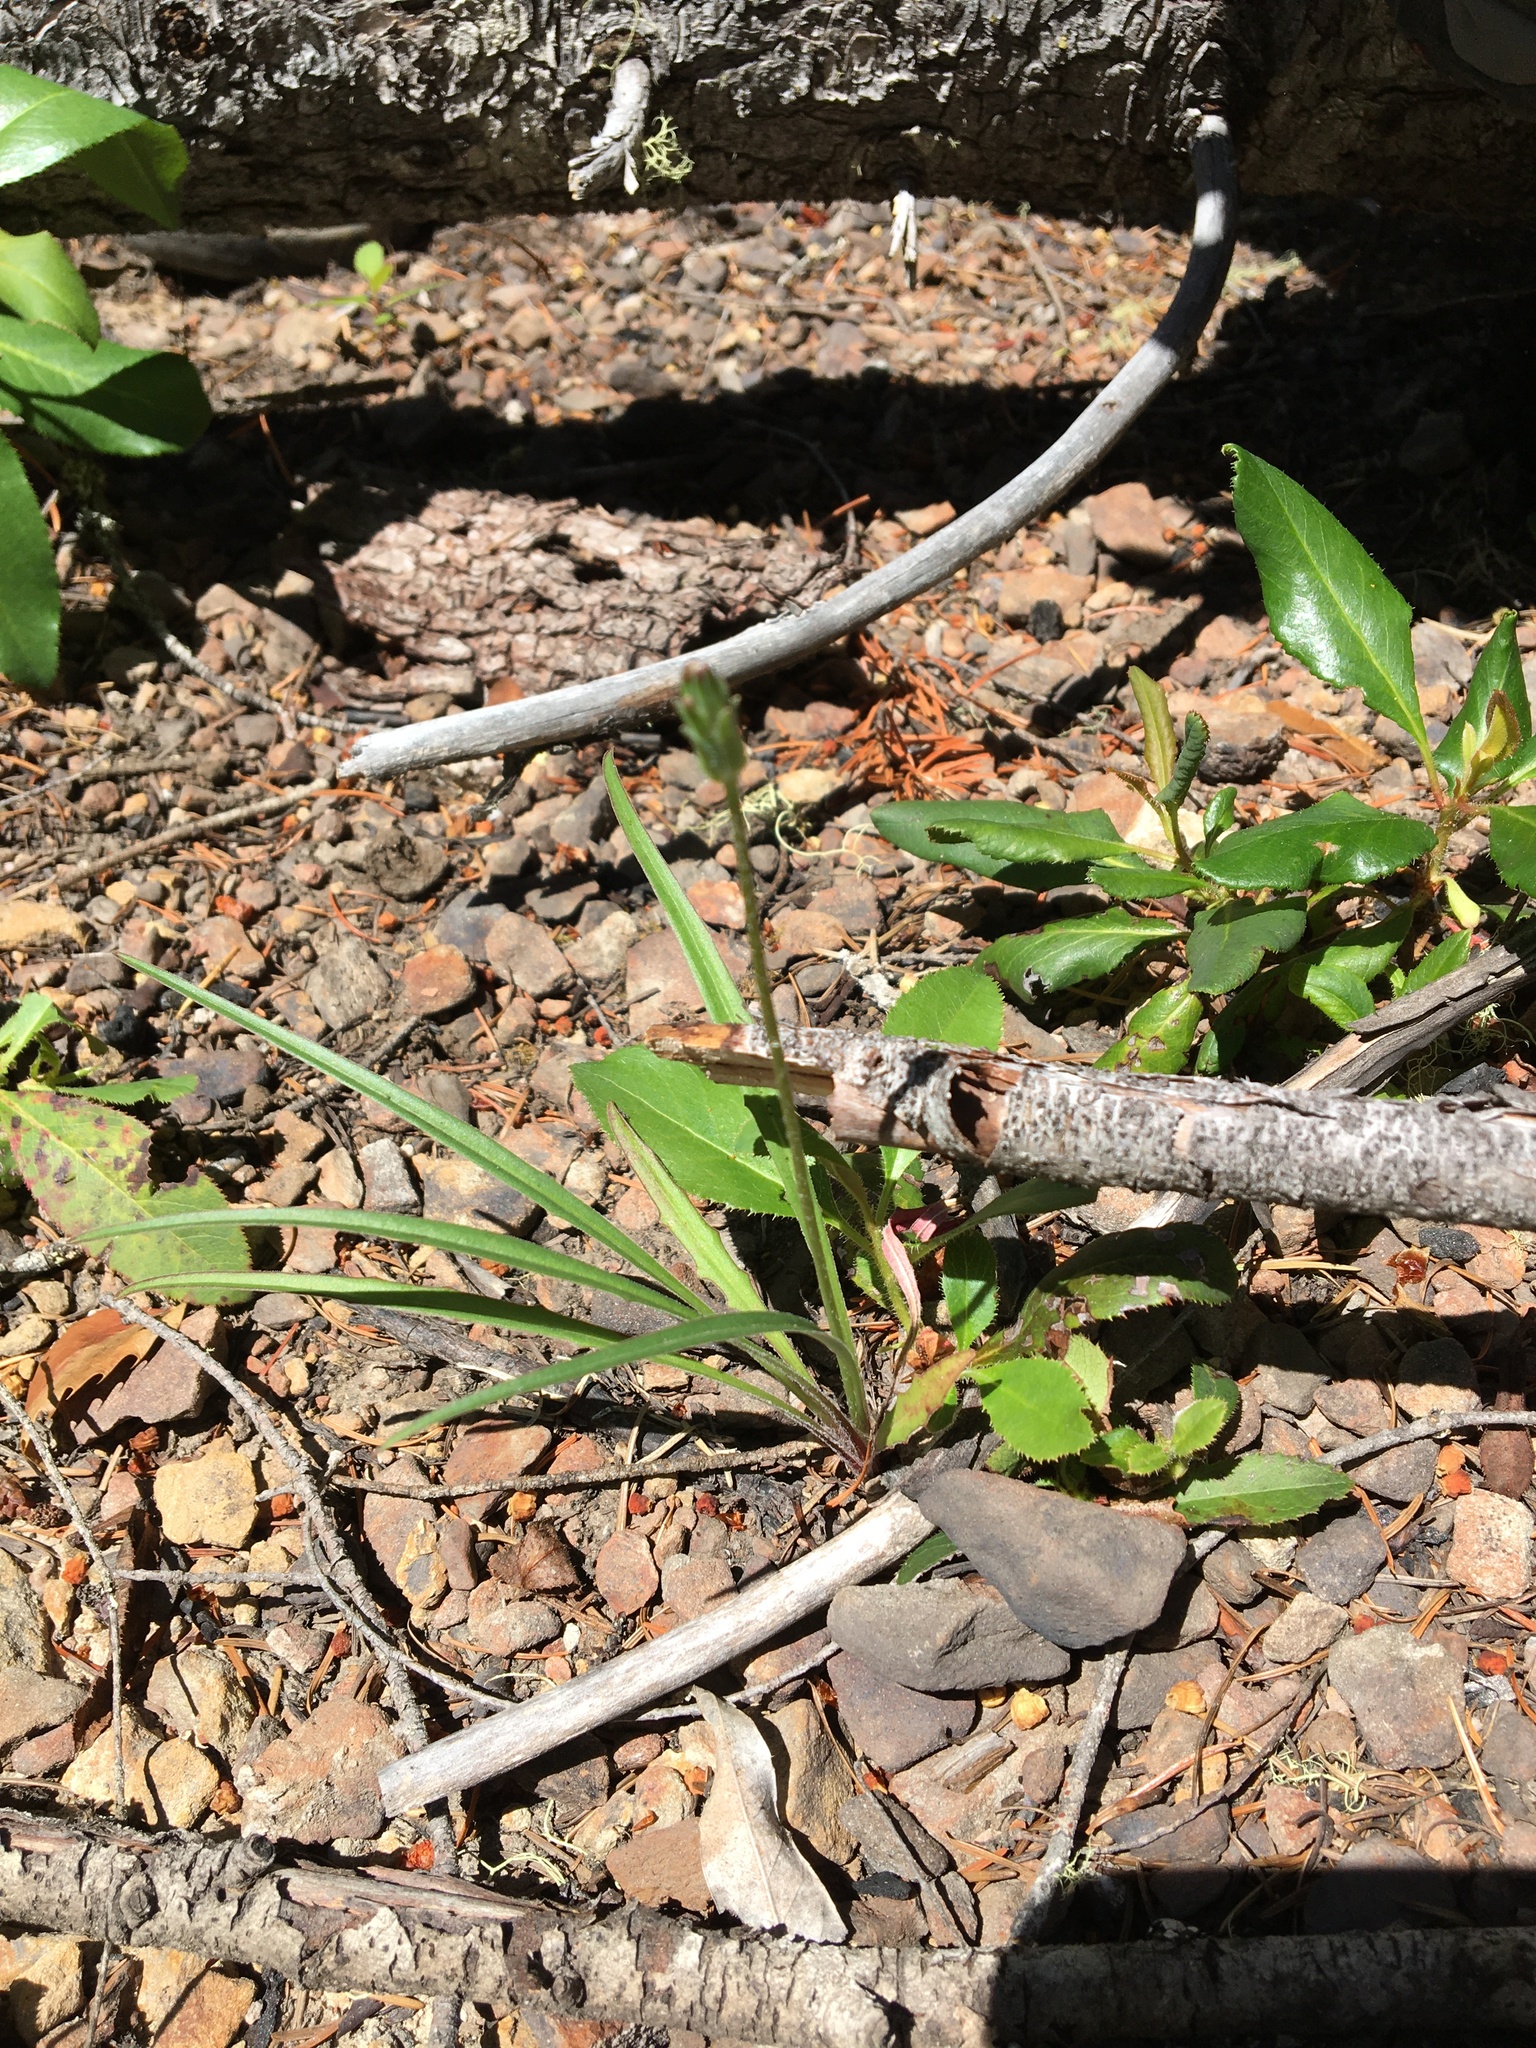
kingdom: Plantae
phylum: Tracheophyta
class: Magnoliopsida
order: Asterales
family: Asteraceae
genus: Hypochaeris
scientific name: Hypochaeris radicata
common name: Flatweed
